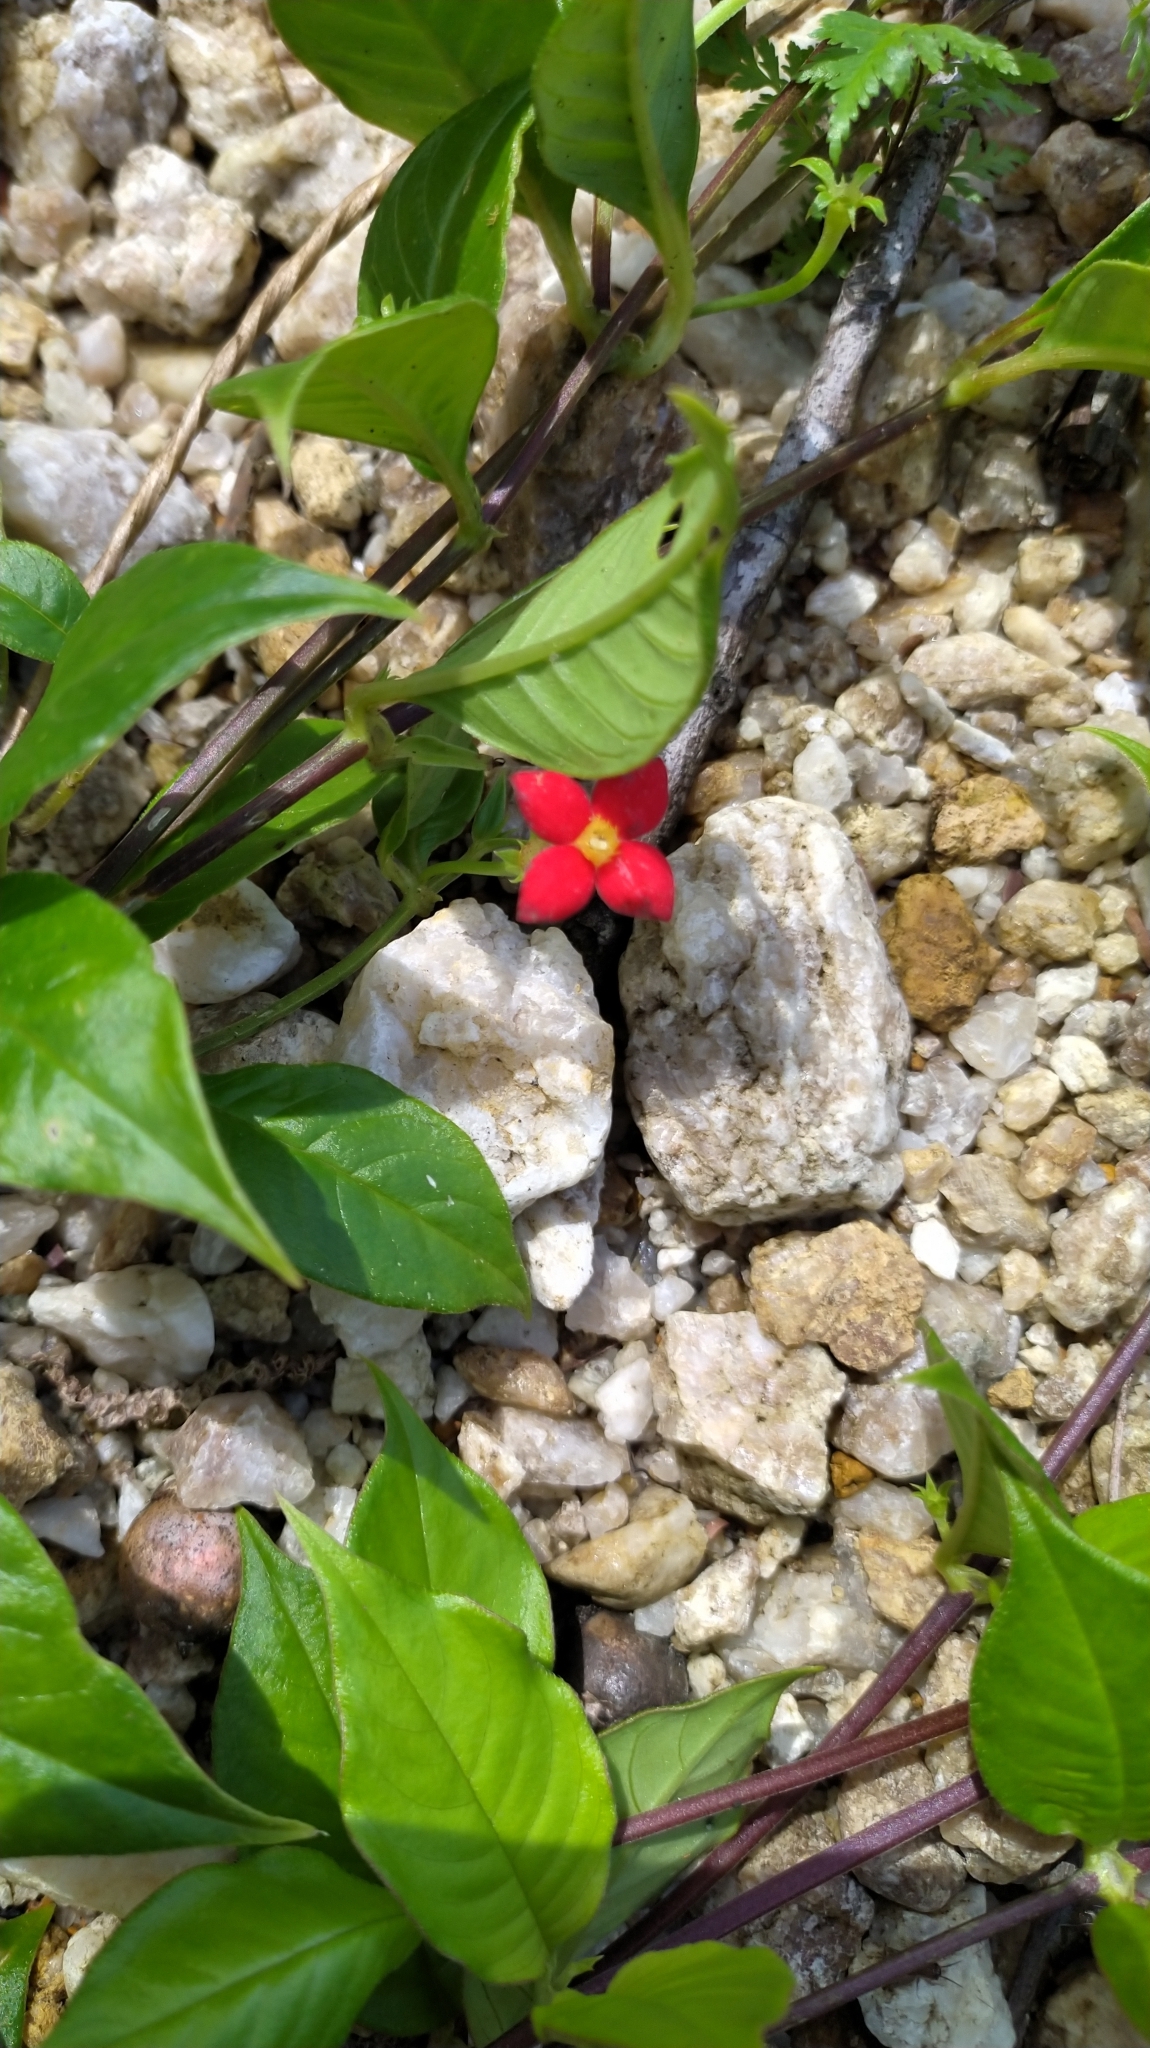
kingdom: Plantae
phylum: Tracheophyta
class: Magnoliopsida
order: Gentianales
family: Rubiaceae
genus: Manettia
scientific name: Manettia coccinea
